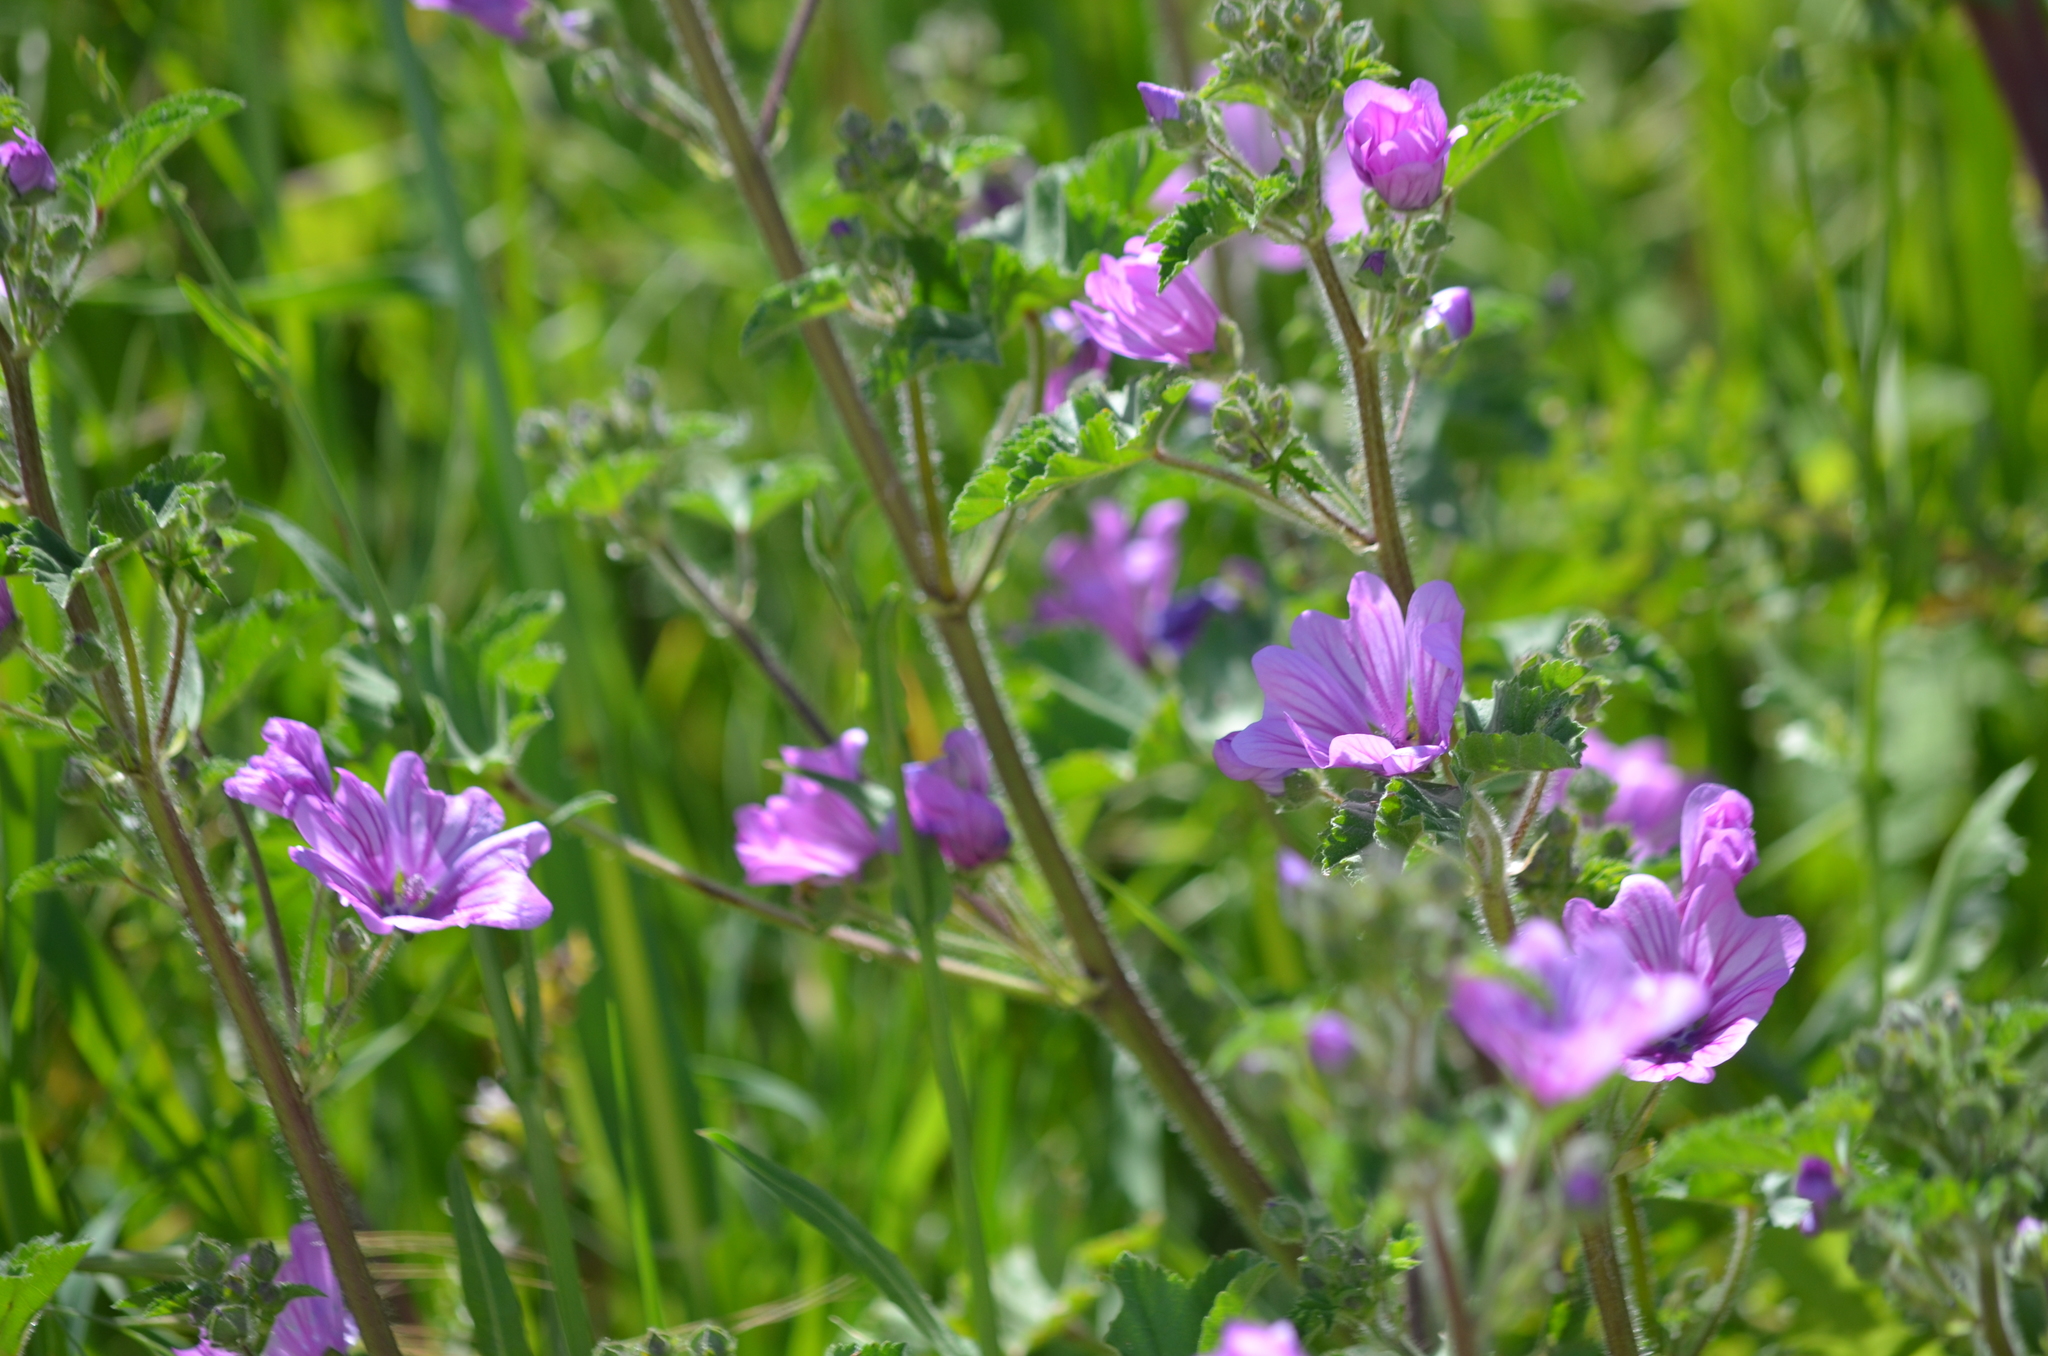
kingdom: Plantae
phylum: Tracheophyta
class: Magnoliopsida
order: Malvales
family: Malvaceae
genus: Malva
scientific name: Malva sylvestris
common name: Common mallow
